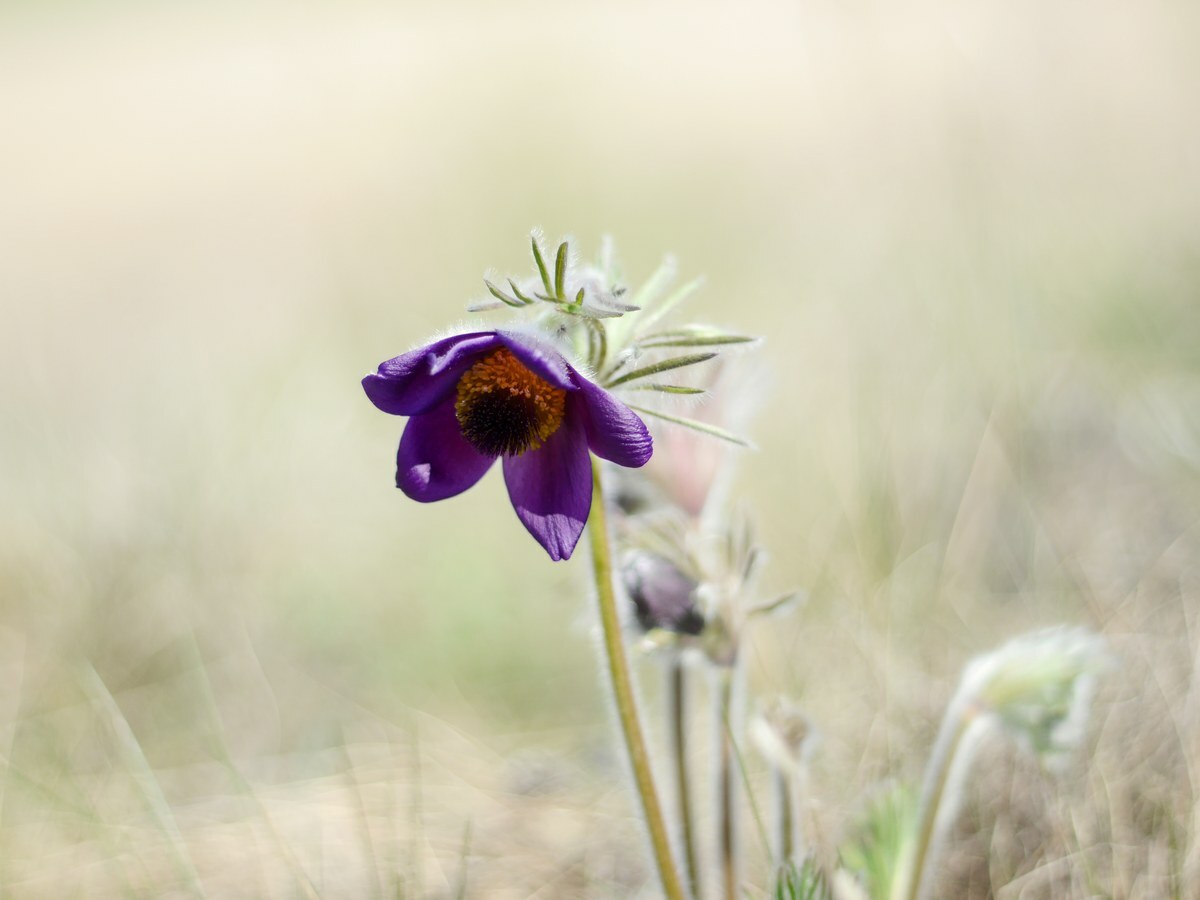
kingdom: Plantae
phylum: Tracheophyta
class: Magnoliopsida
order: Ranunculales
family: Ranunculaceae
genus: Pulsatilla
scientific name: Pulsatilla pratensis
